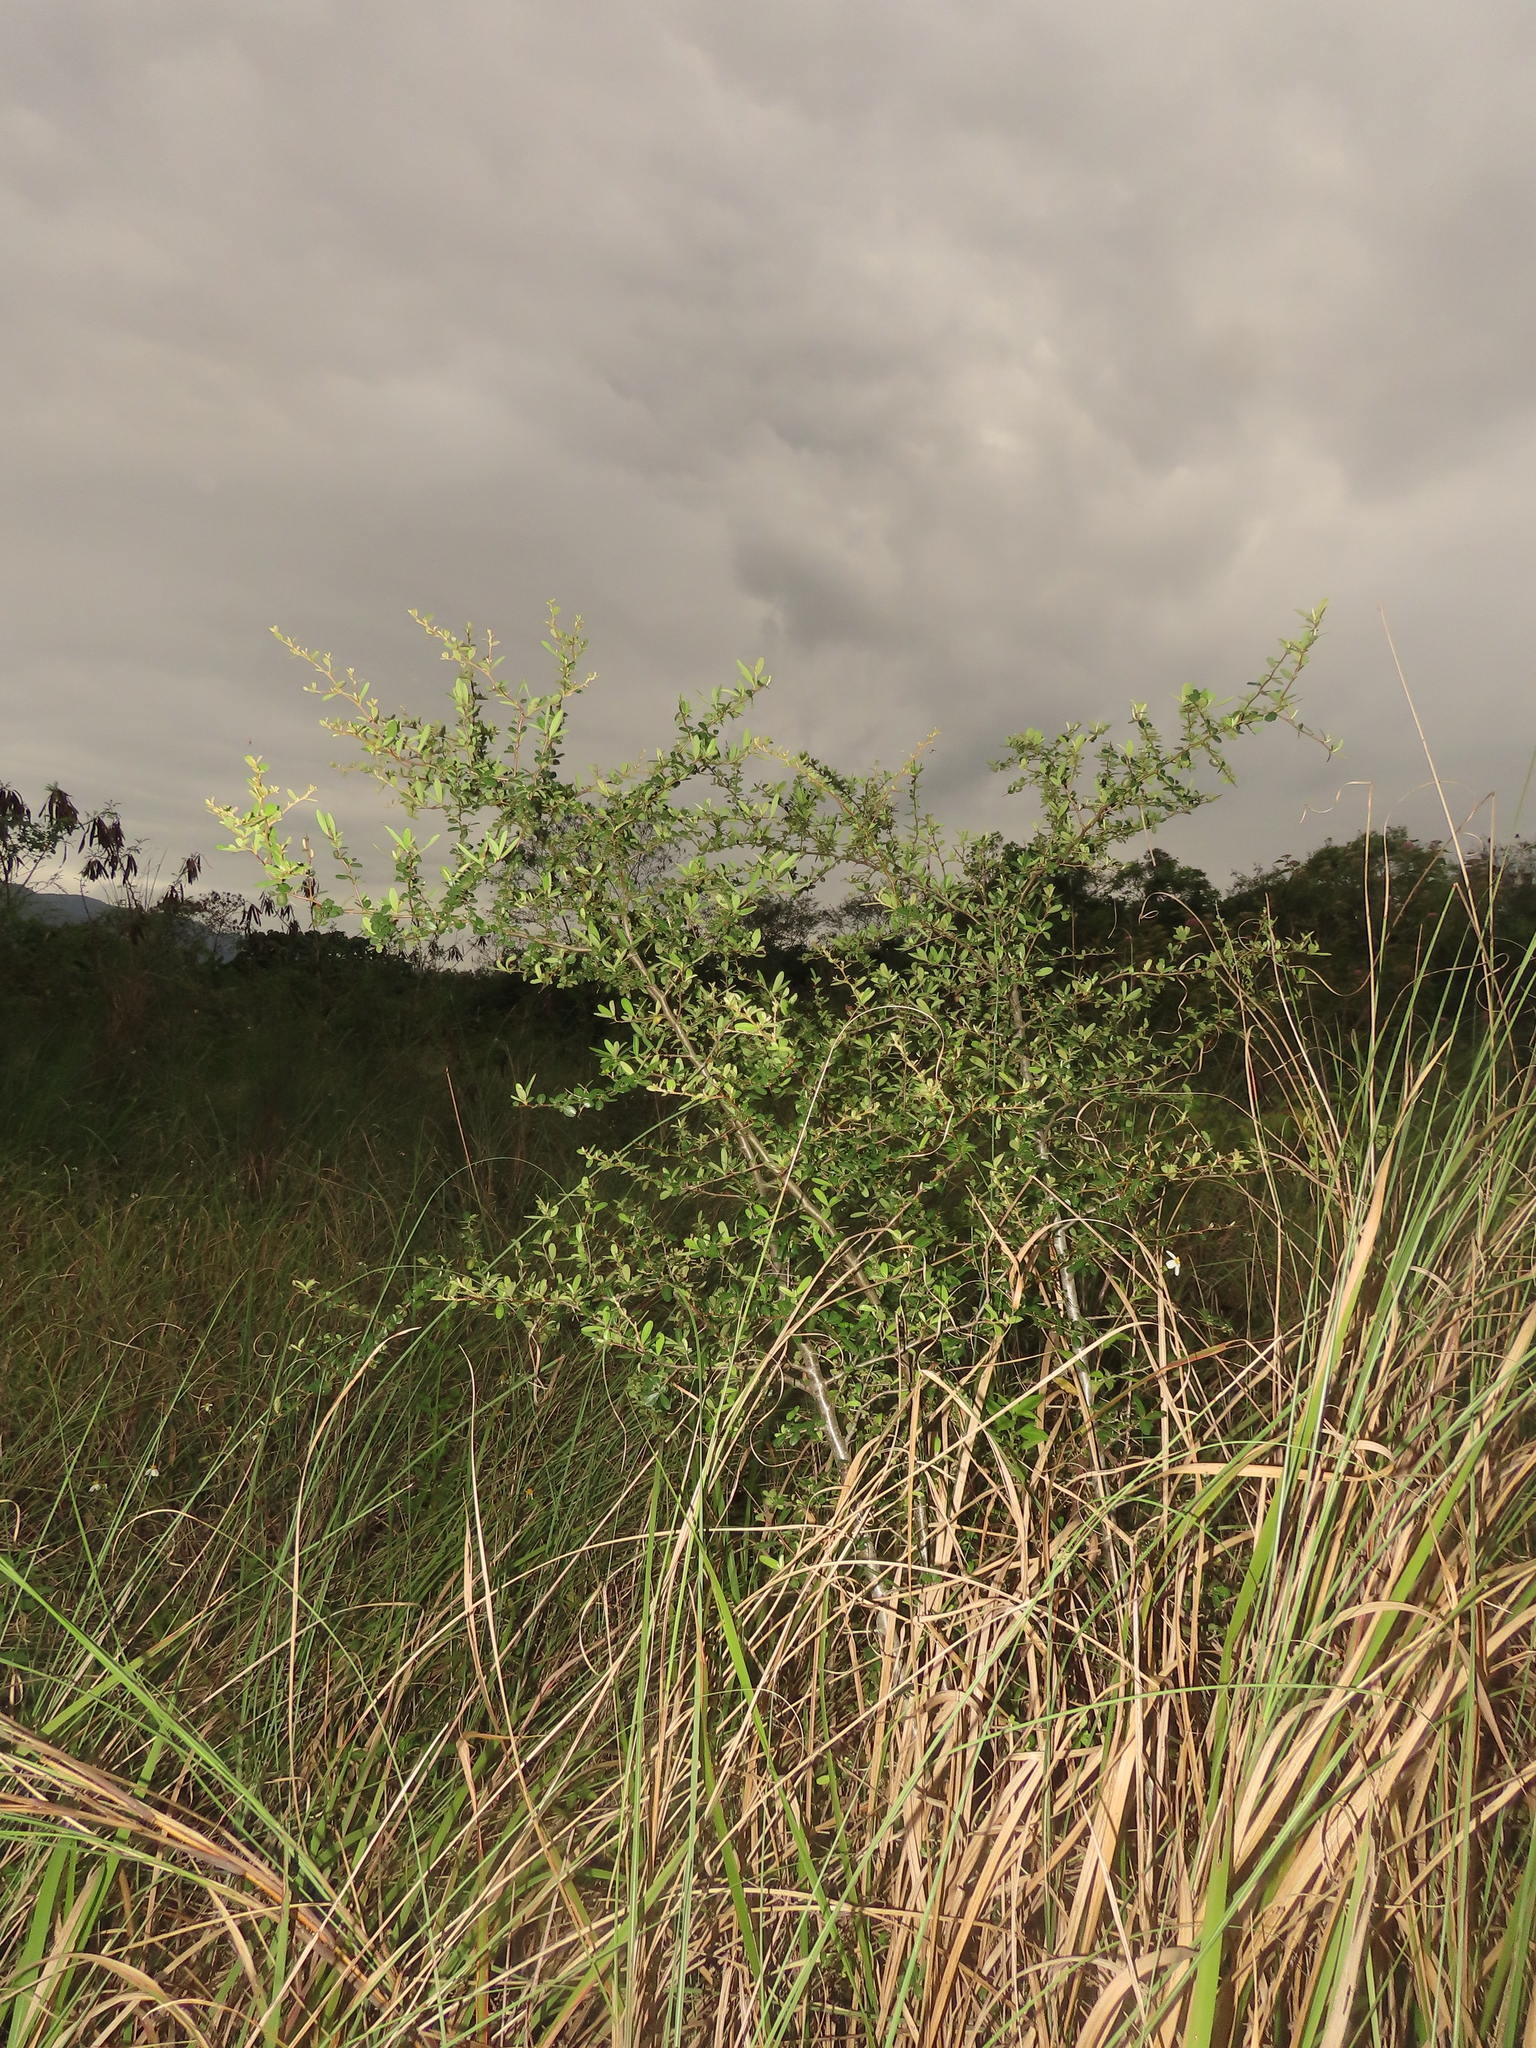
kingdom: Plantae
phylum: Tracheophyta
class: Magnoliopsida
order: Rosales
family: Rosaceae
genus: Pyracantha
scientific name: Pyracantha koidzumii
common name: Formosa firethorn
